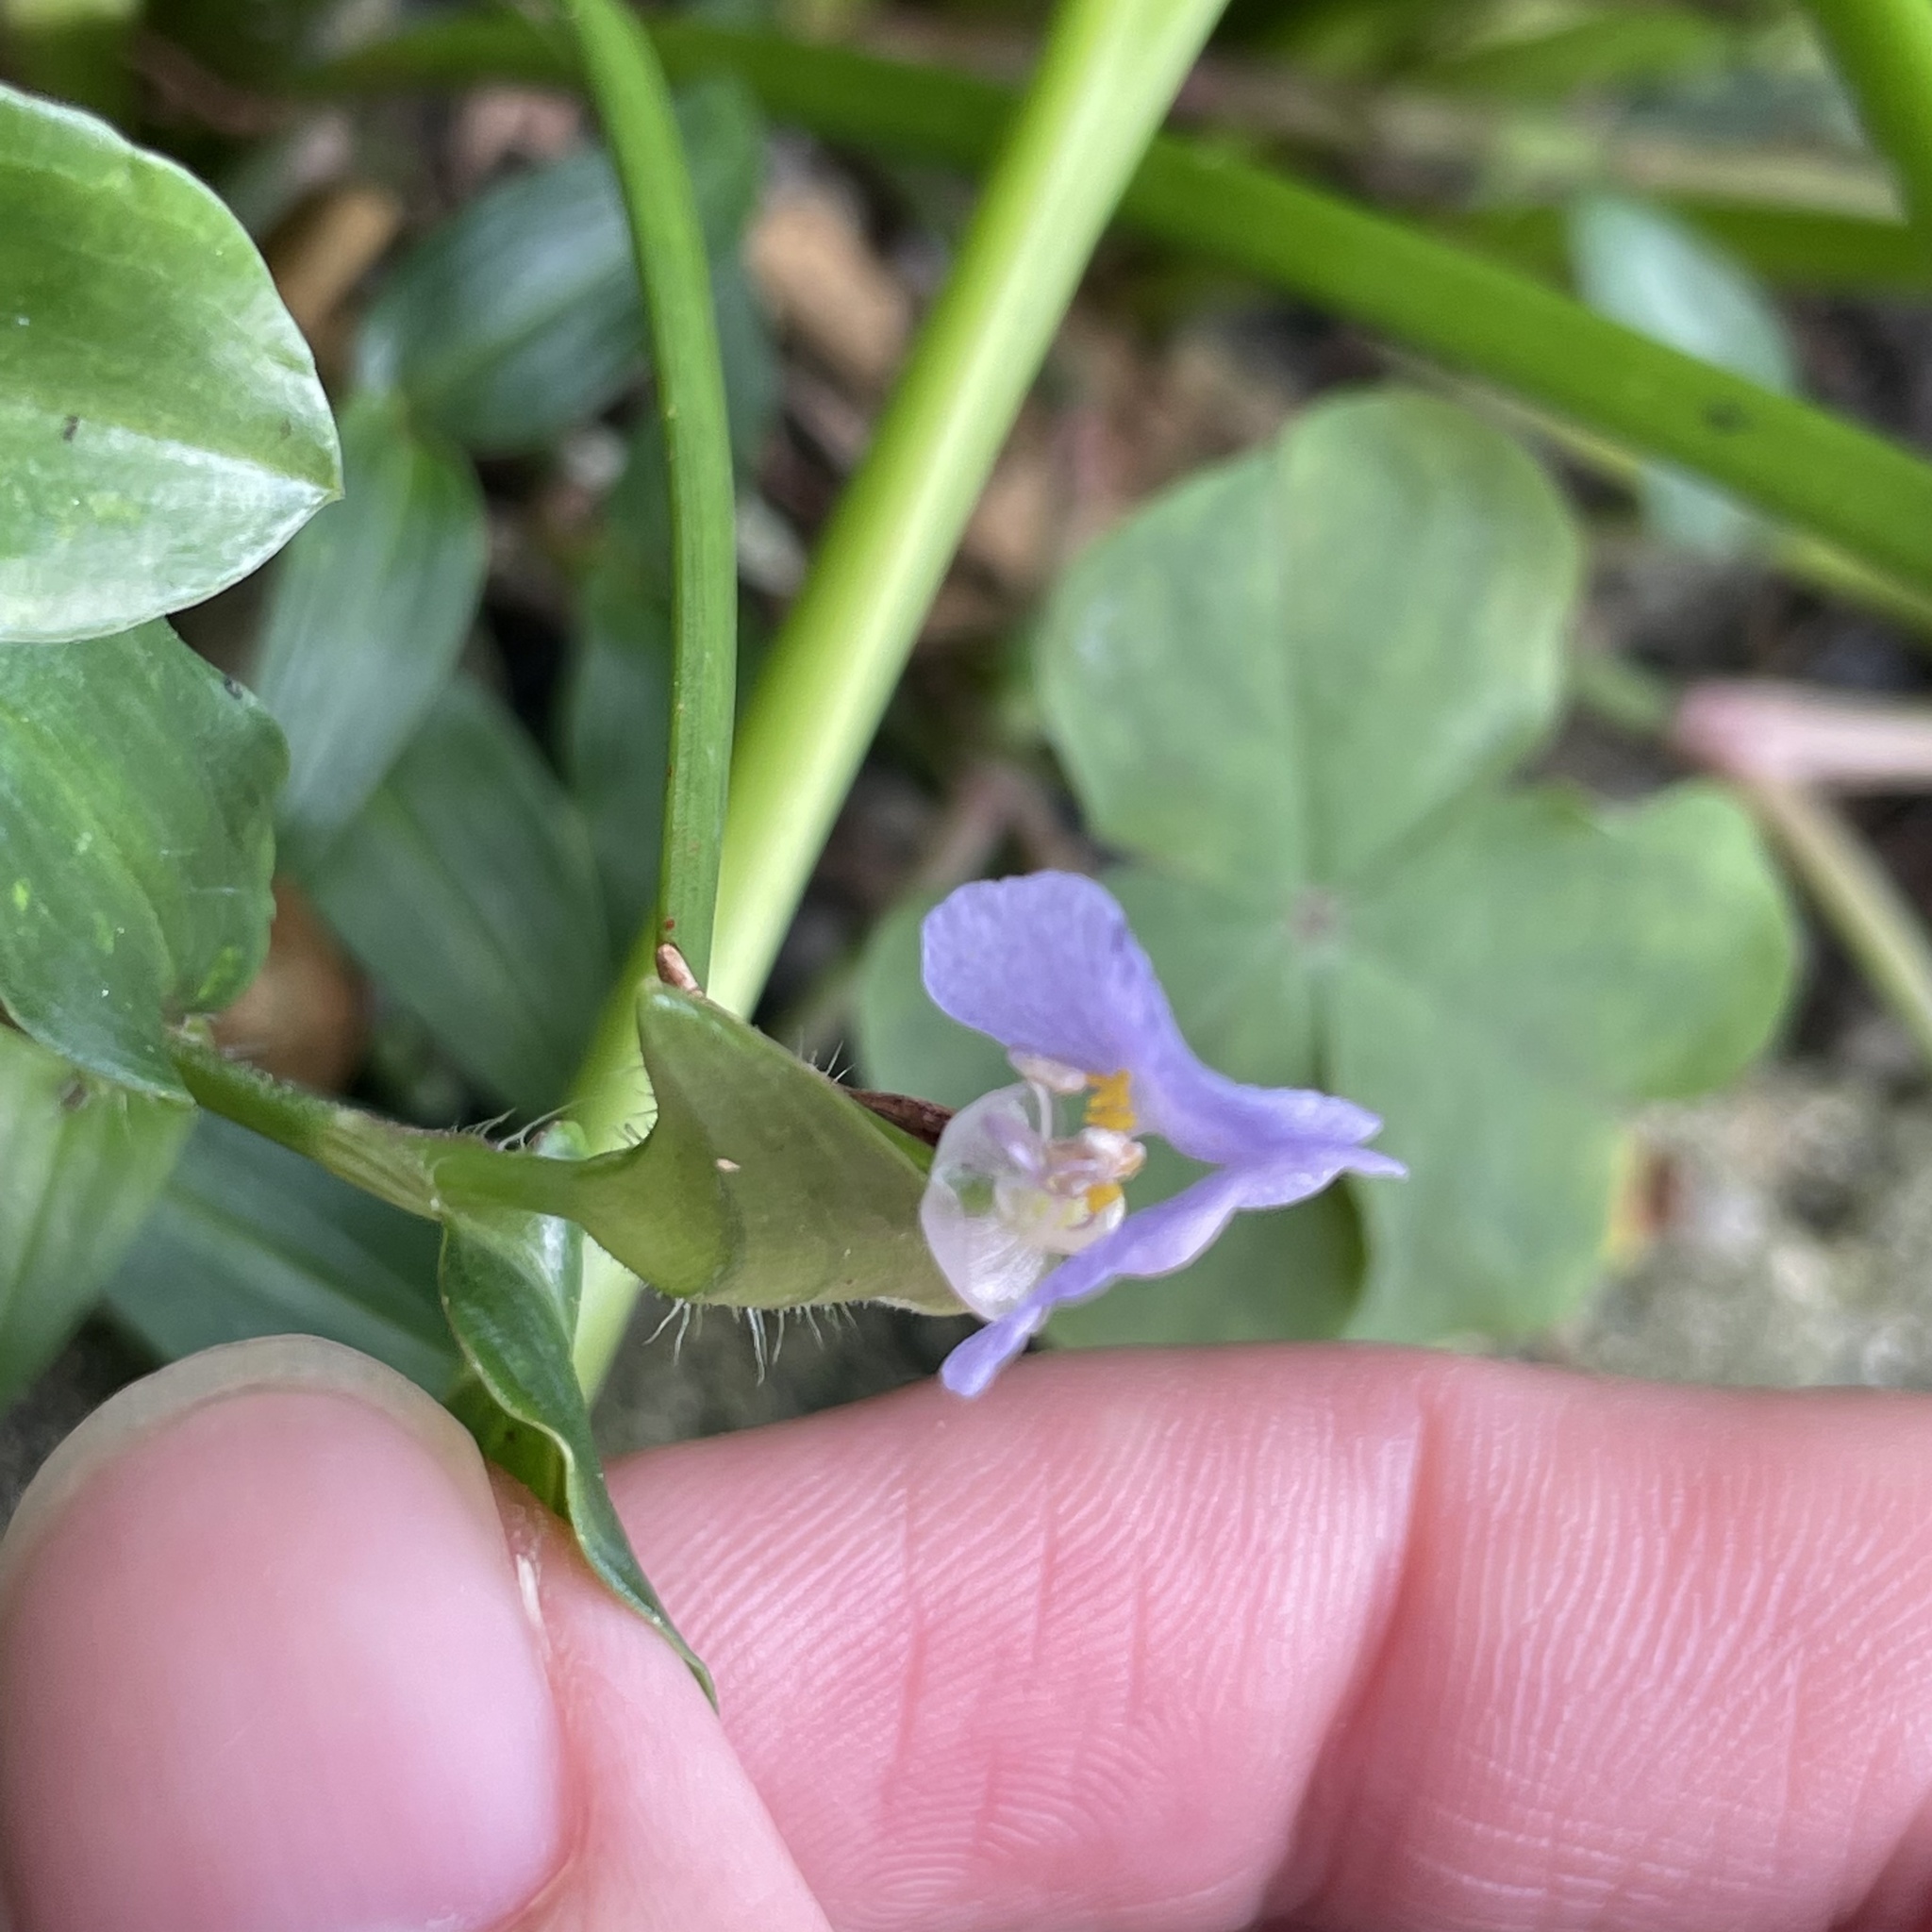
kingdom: Plantae
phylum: Tracheophyta
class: Liliopsida
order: Commelinales
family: Commelinaceae
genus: Commelina
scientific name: Commelina auriculata
